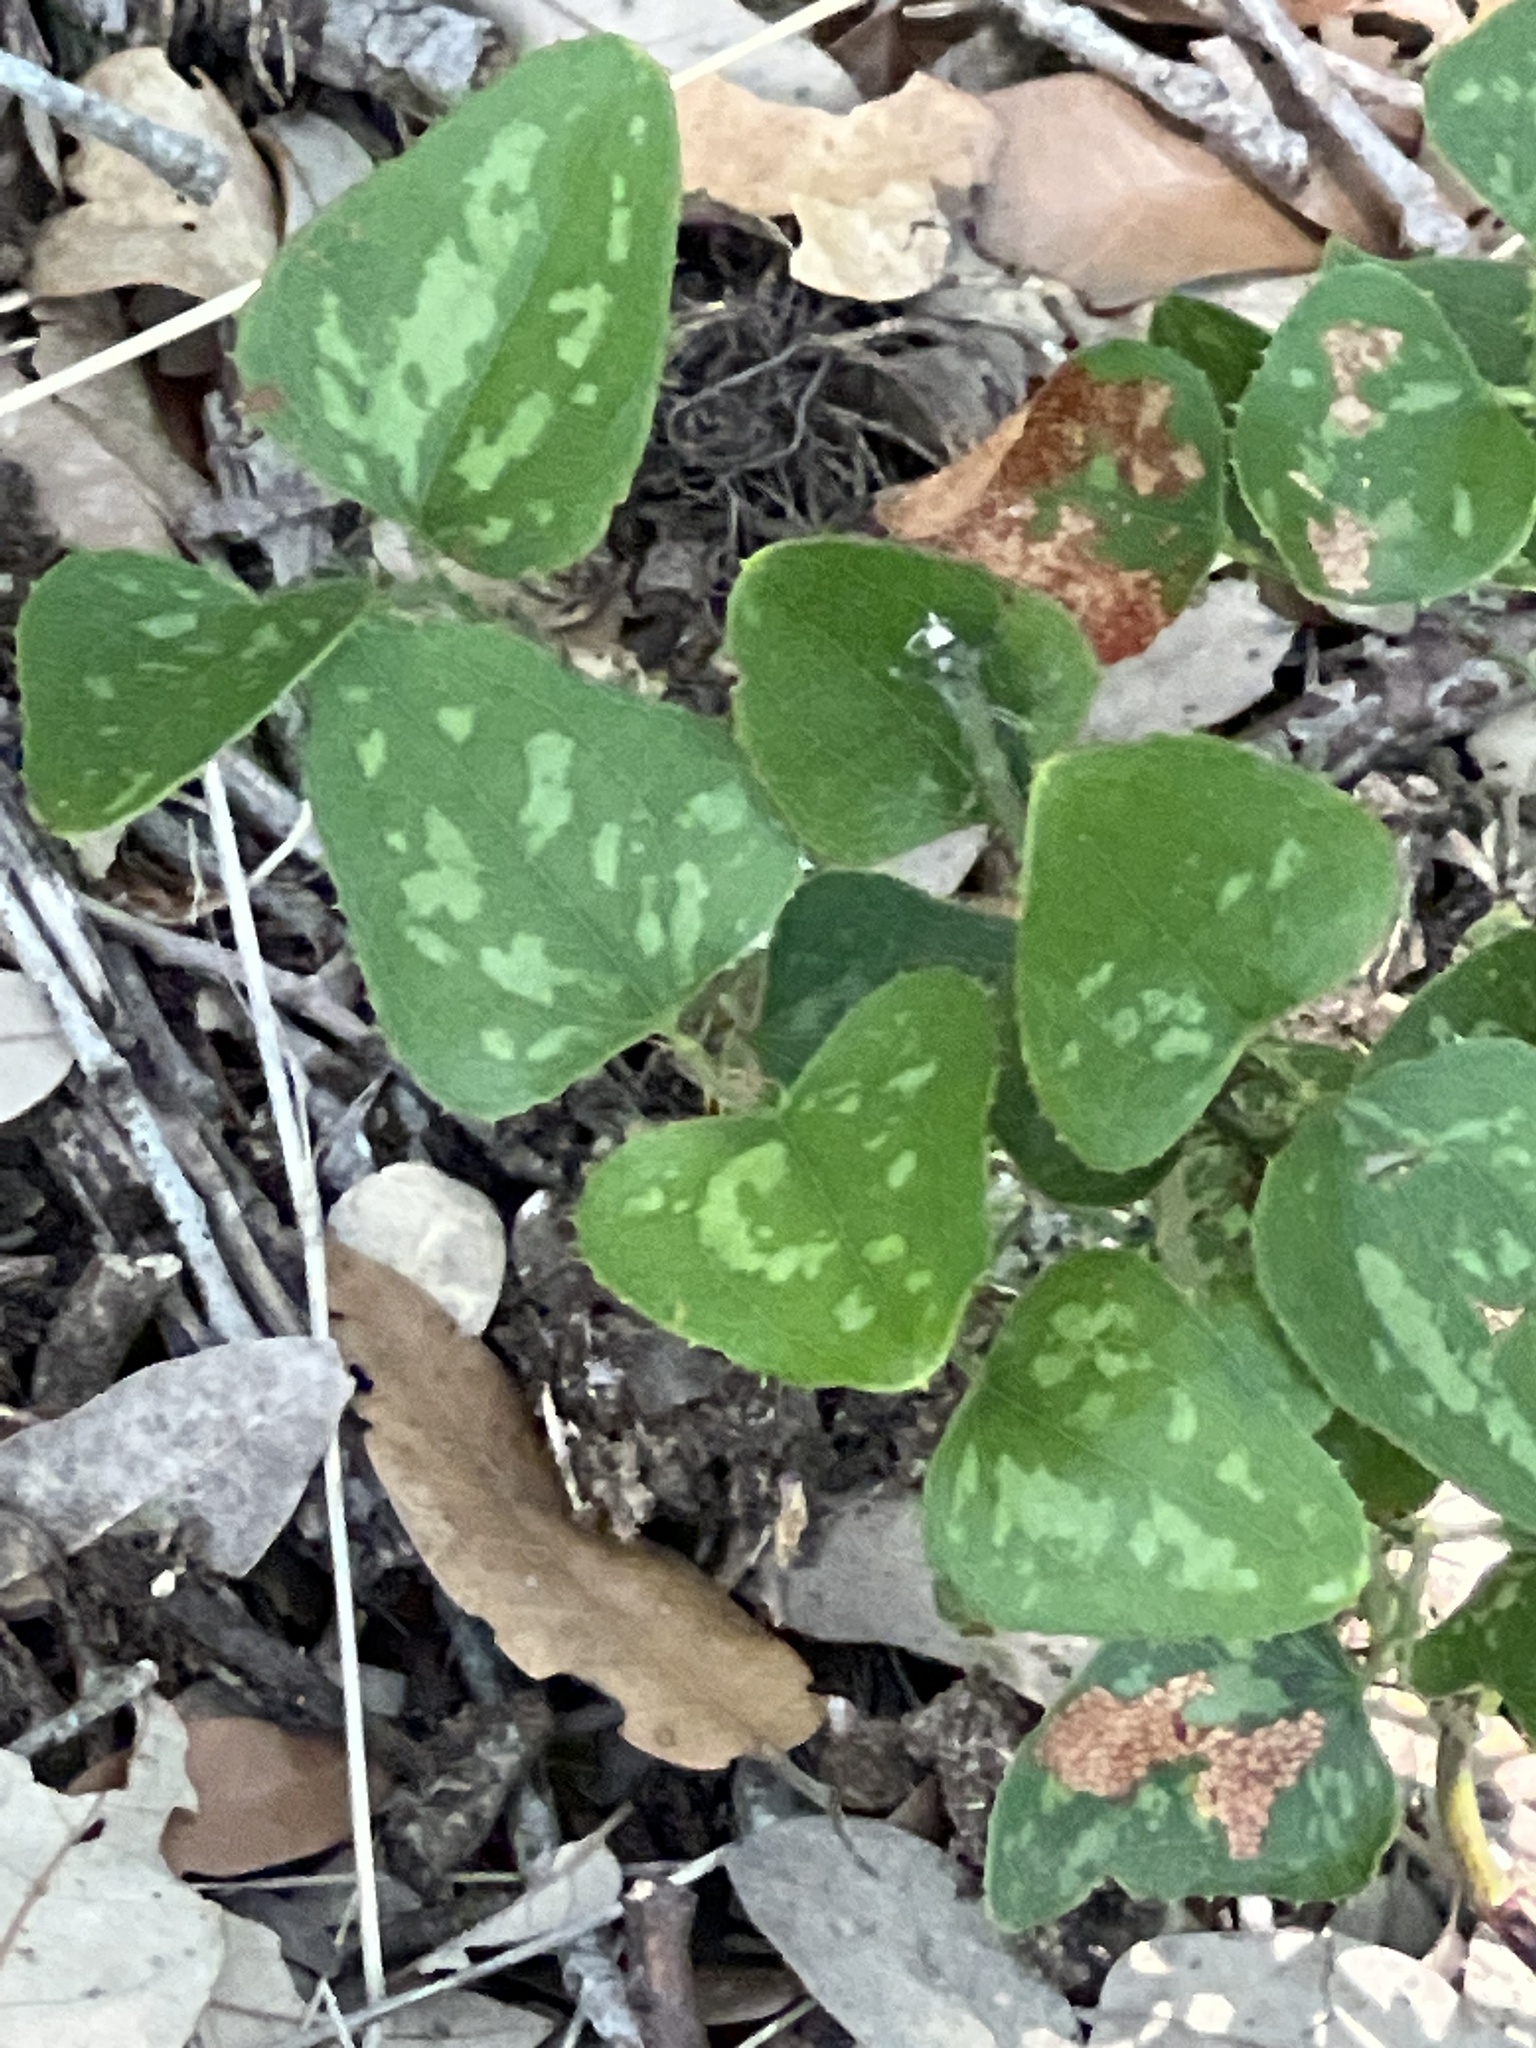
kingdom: Plantae
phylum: Tracheophyta
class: Liliopsida
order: Liliales
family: Smilacaceae
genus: Smilax
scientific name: Smilax bona-nox
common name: Catbrier
